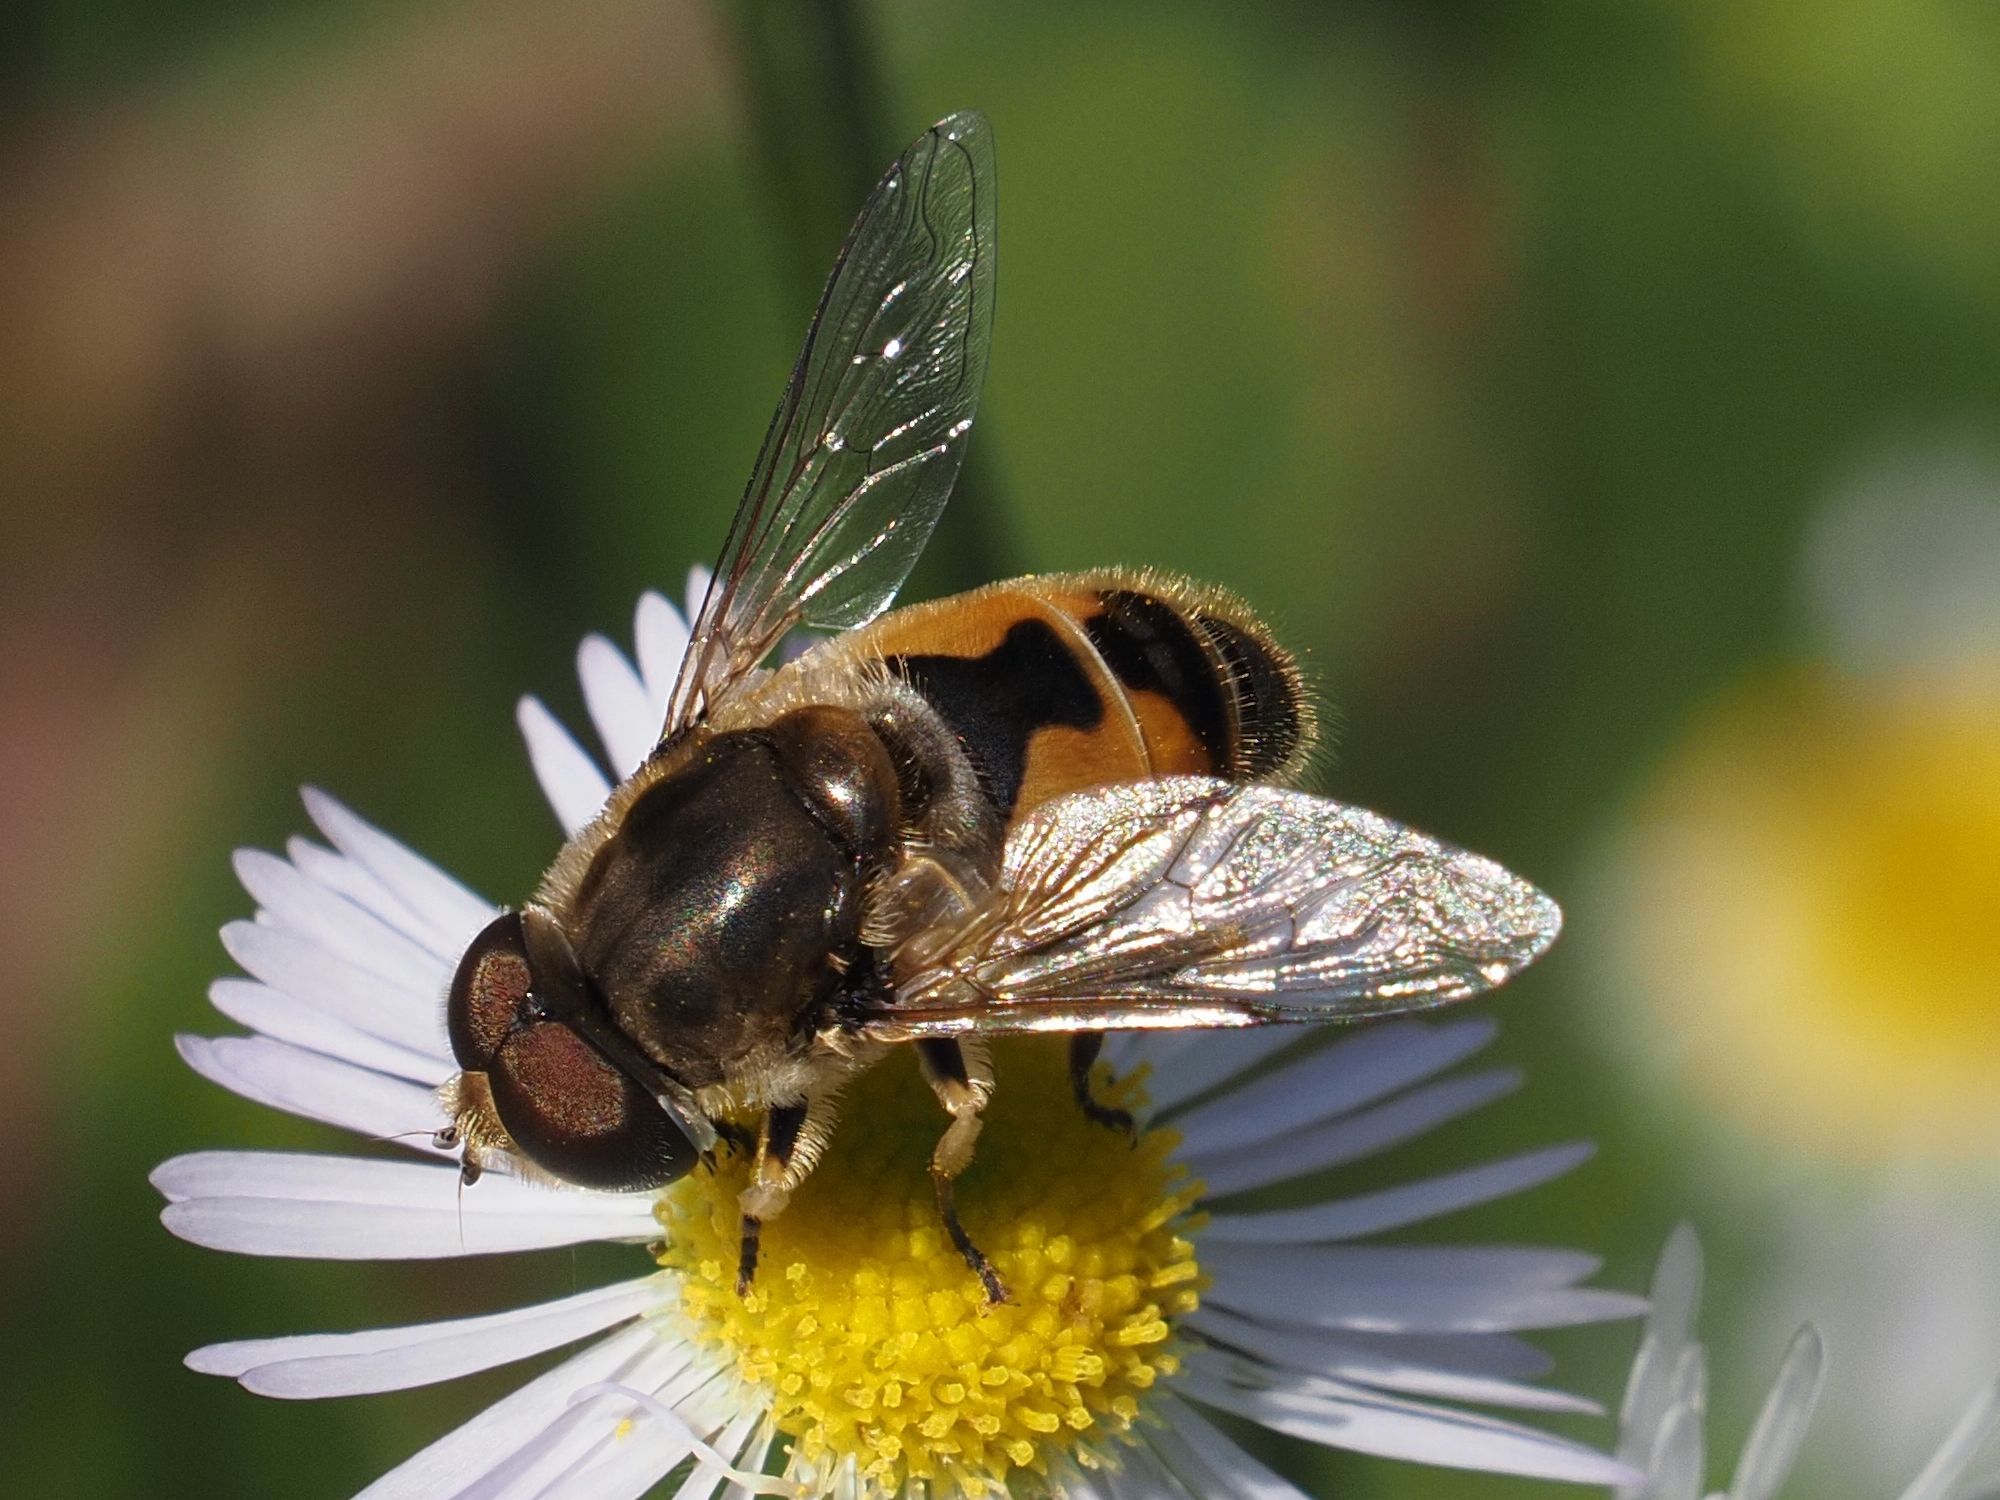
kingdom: Animalia
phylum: Arthropoda
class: Insecta
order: Diptera
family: Syrphidae
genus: Eristalis
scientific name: Eristalis arbustorum
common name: Hover fly
